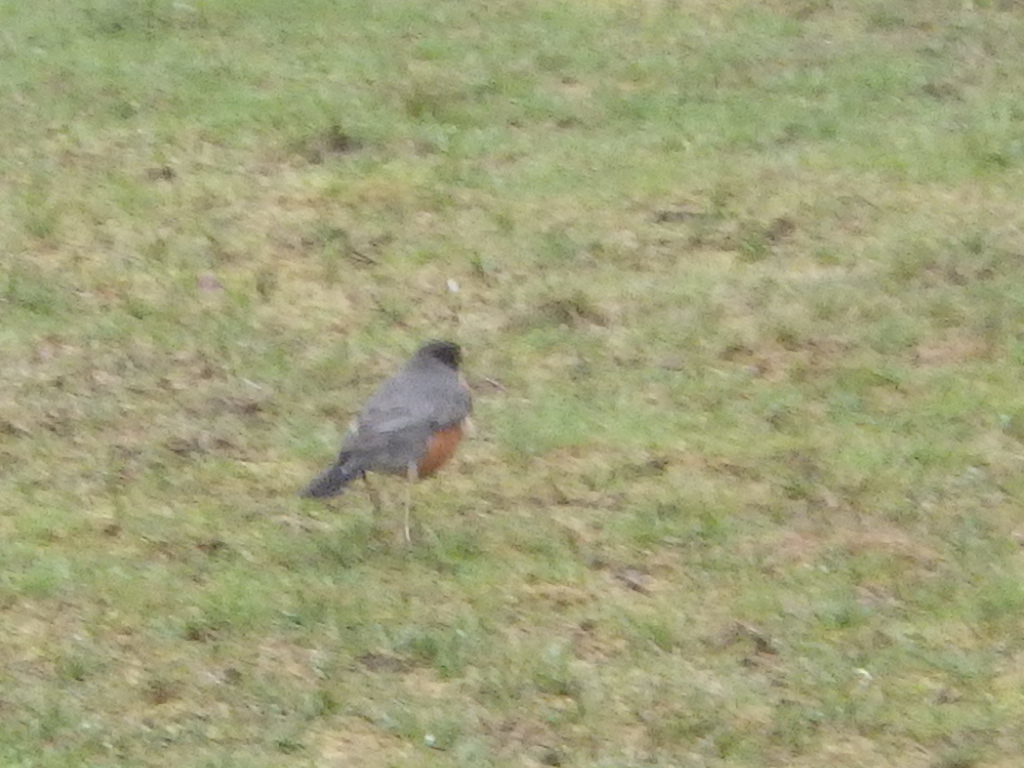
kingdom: Animalia
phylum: Chordata
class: Aves
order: Passeriformes
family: Turdidae
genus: Turdus
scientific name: Turdus migratorius
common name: American robin
